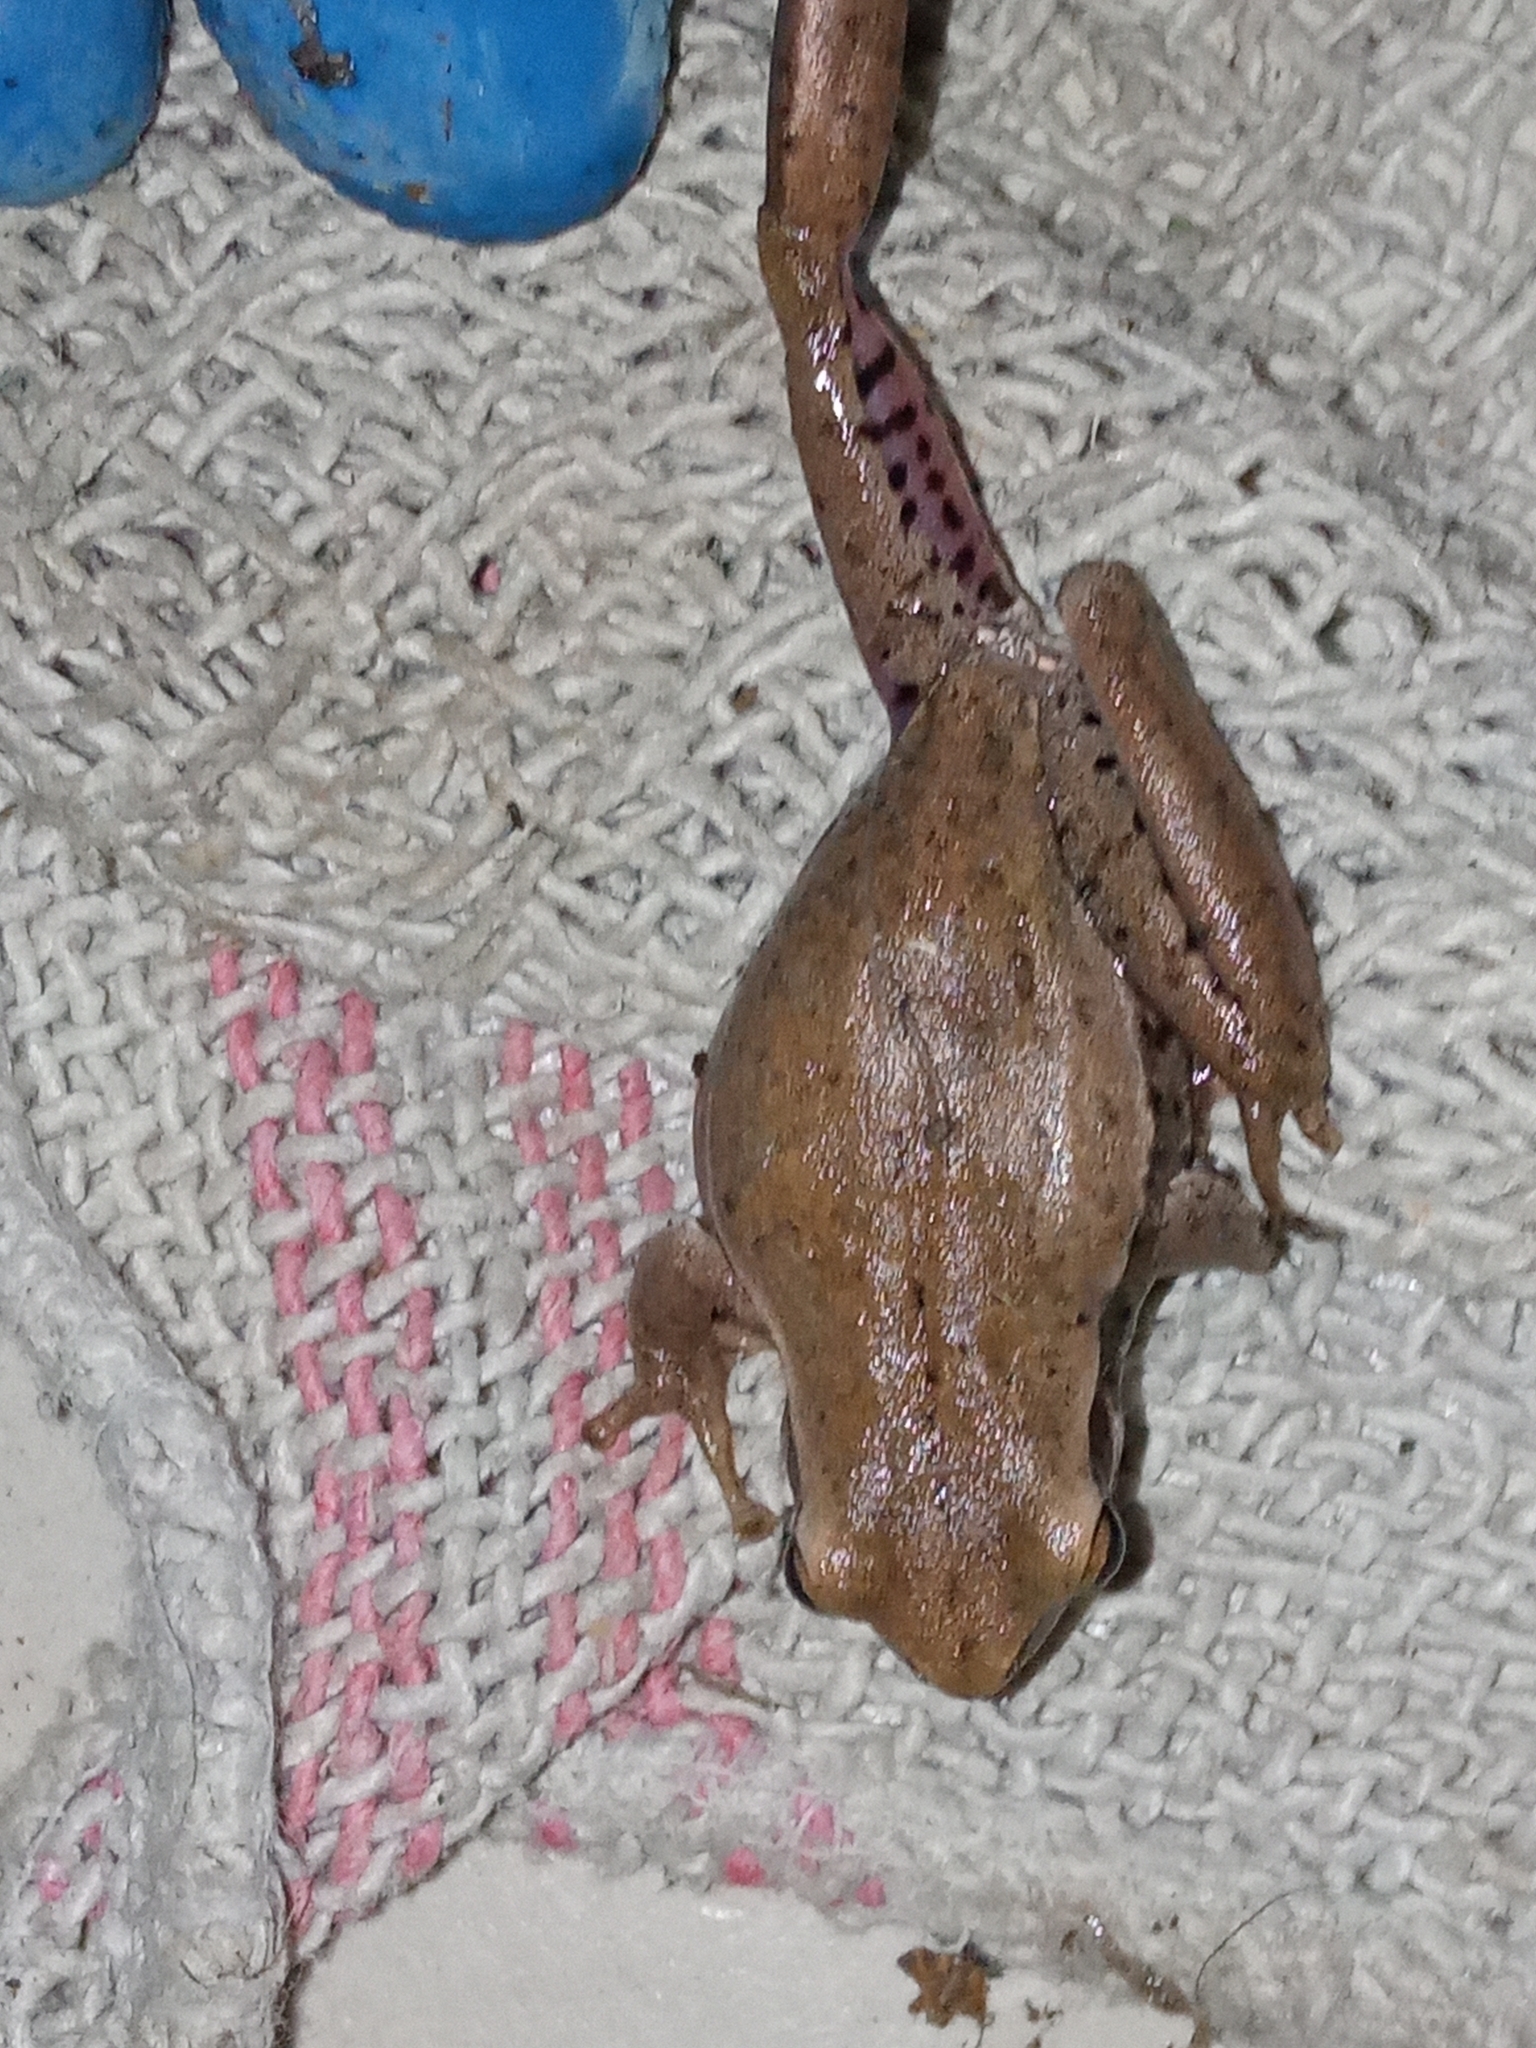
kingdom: Animalia
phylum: Chordata
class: Amphibia
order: Anura
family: Hylidae
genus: Boana
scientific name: Boana pulchella
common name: Montevideo treefrog
